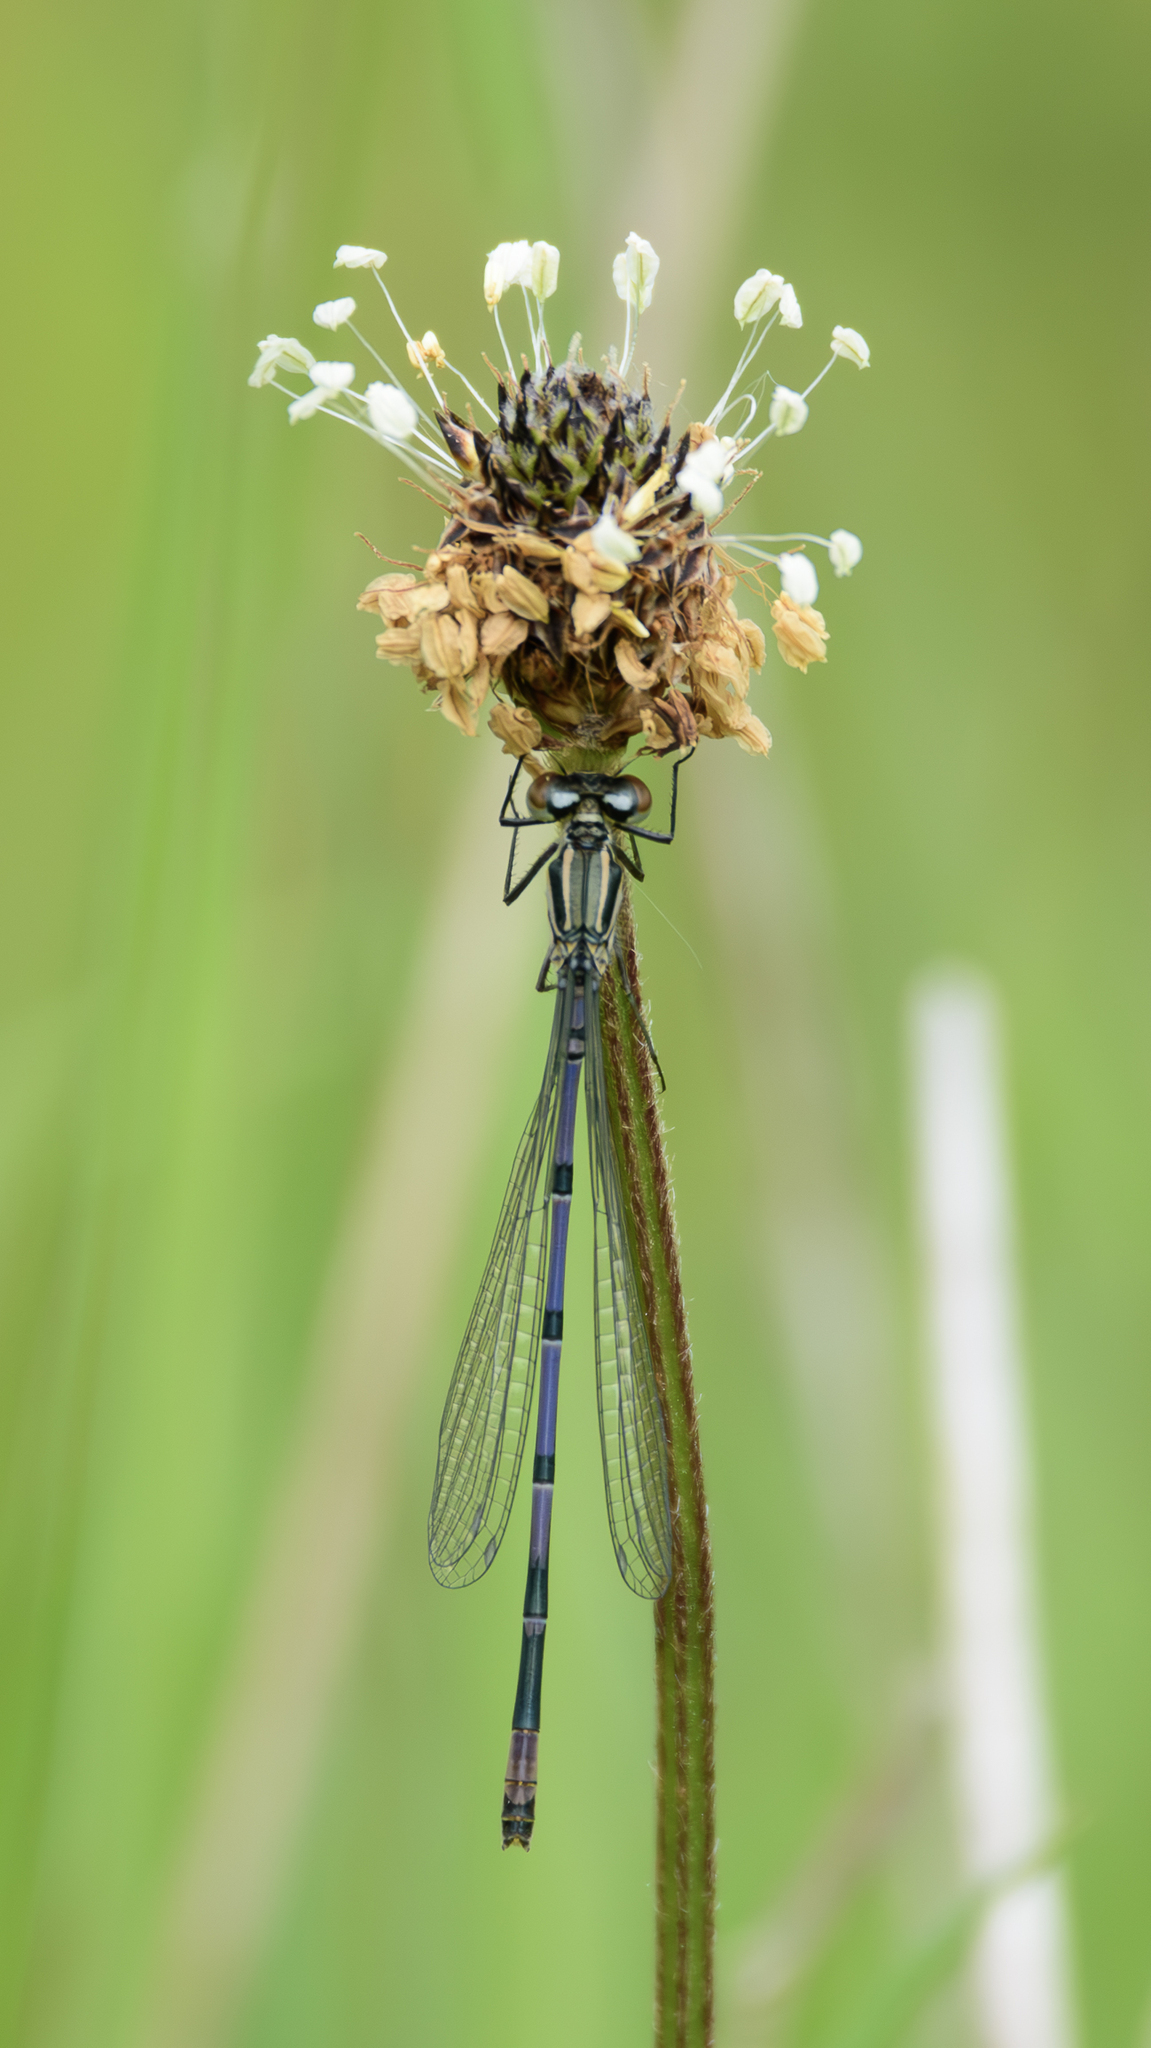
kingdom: Animalia
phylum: Arthropoda
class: Insecta
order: Odonata
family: Coenagrionidae
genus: Coenagrion
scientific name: Coenagrion puella
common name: Azure damselfly
